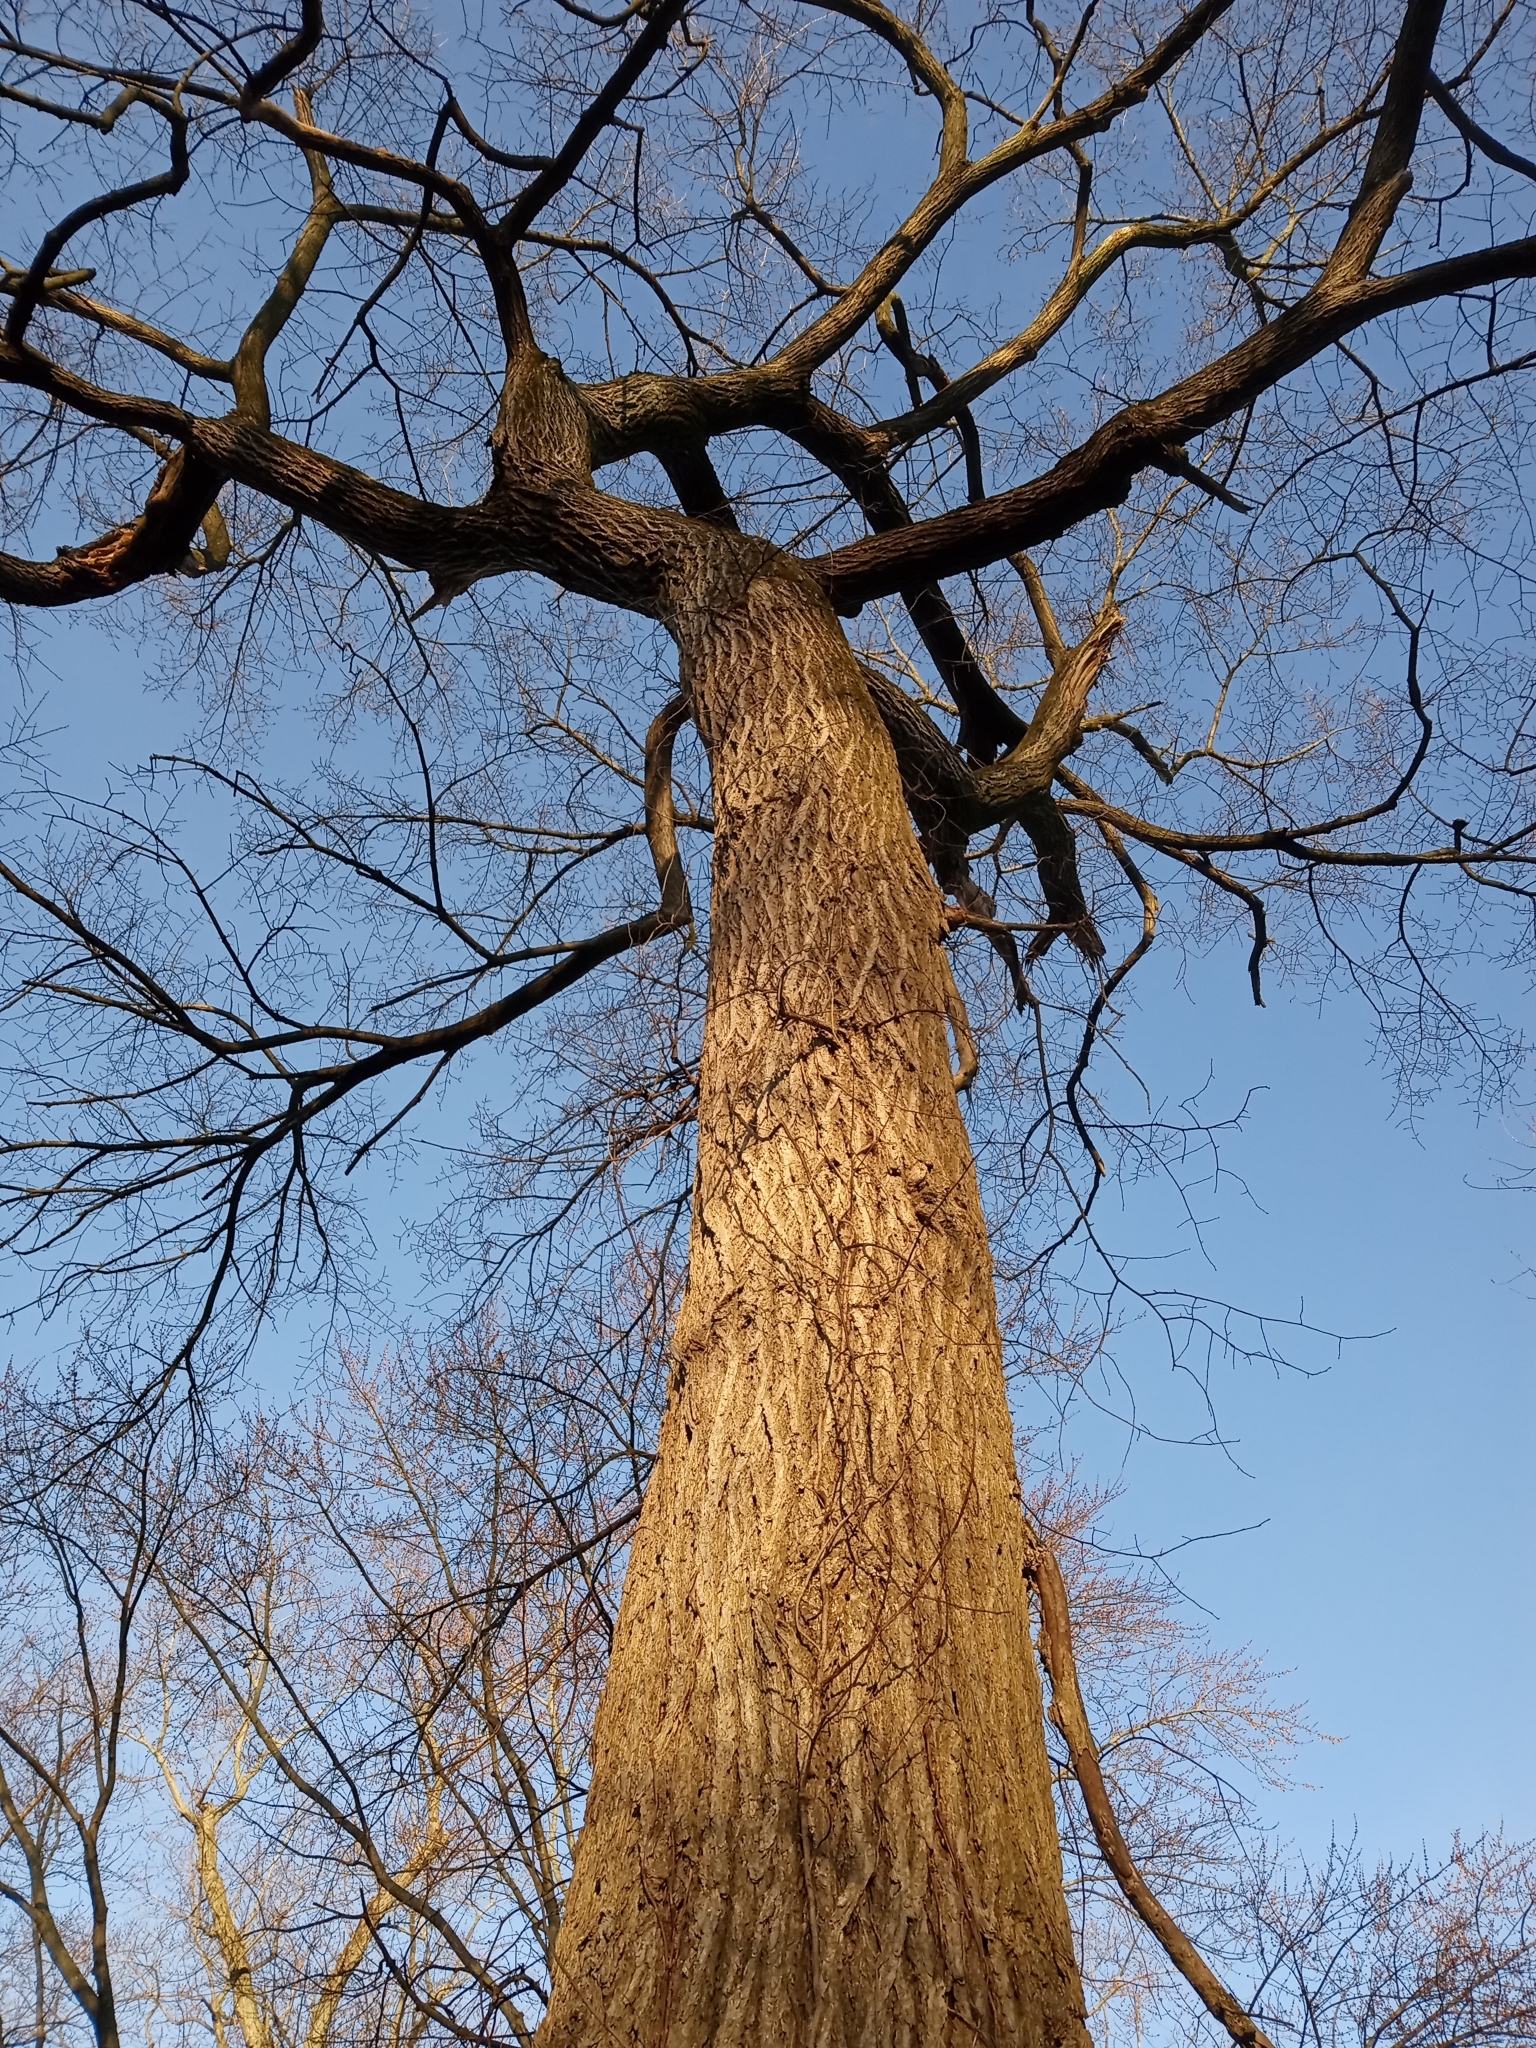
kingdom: Plantae
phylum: Tracheophyta
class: Magnoliopsida
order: Rosales
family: Ulmaceae
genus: Ulmus
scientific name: Ulmus americana
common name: American elm
